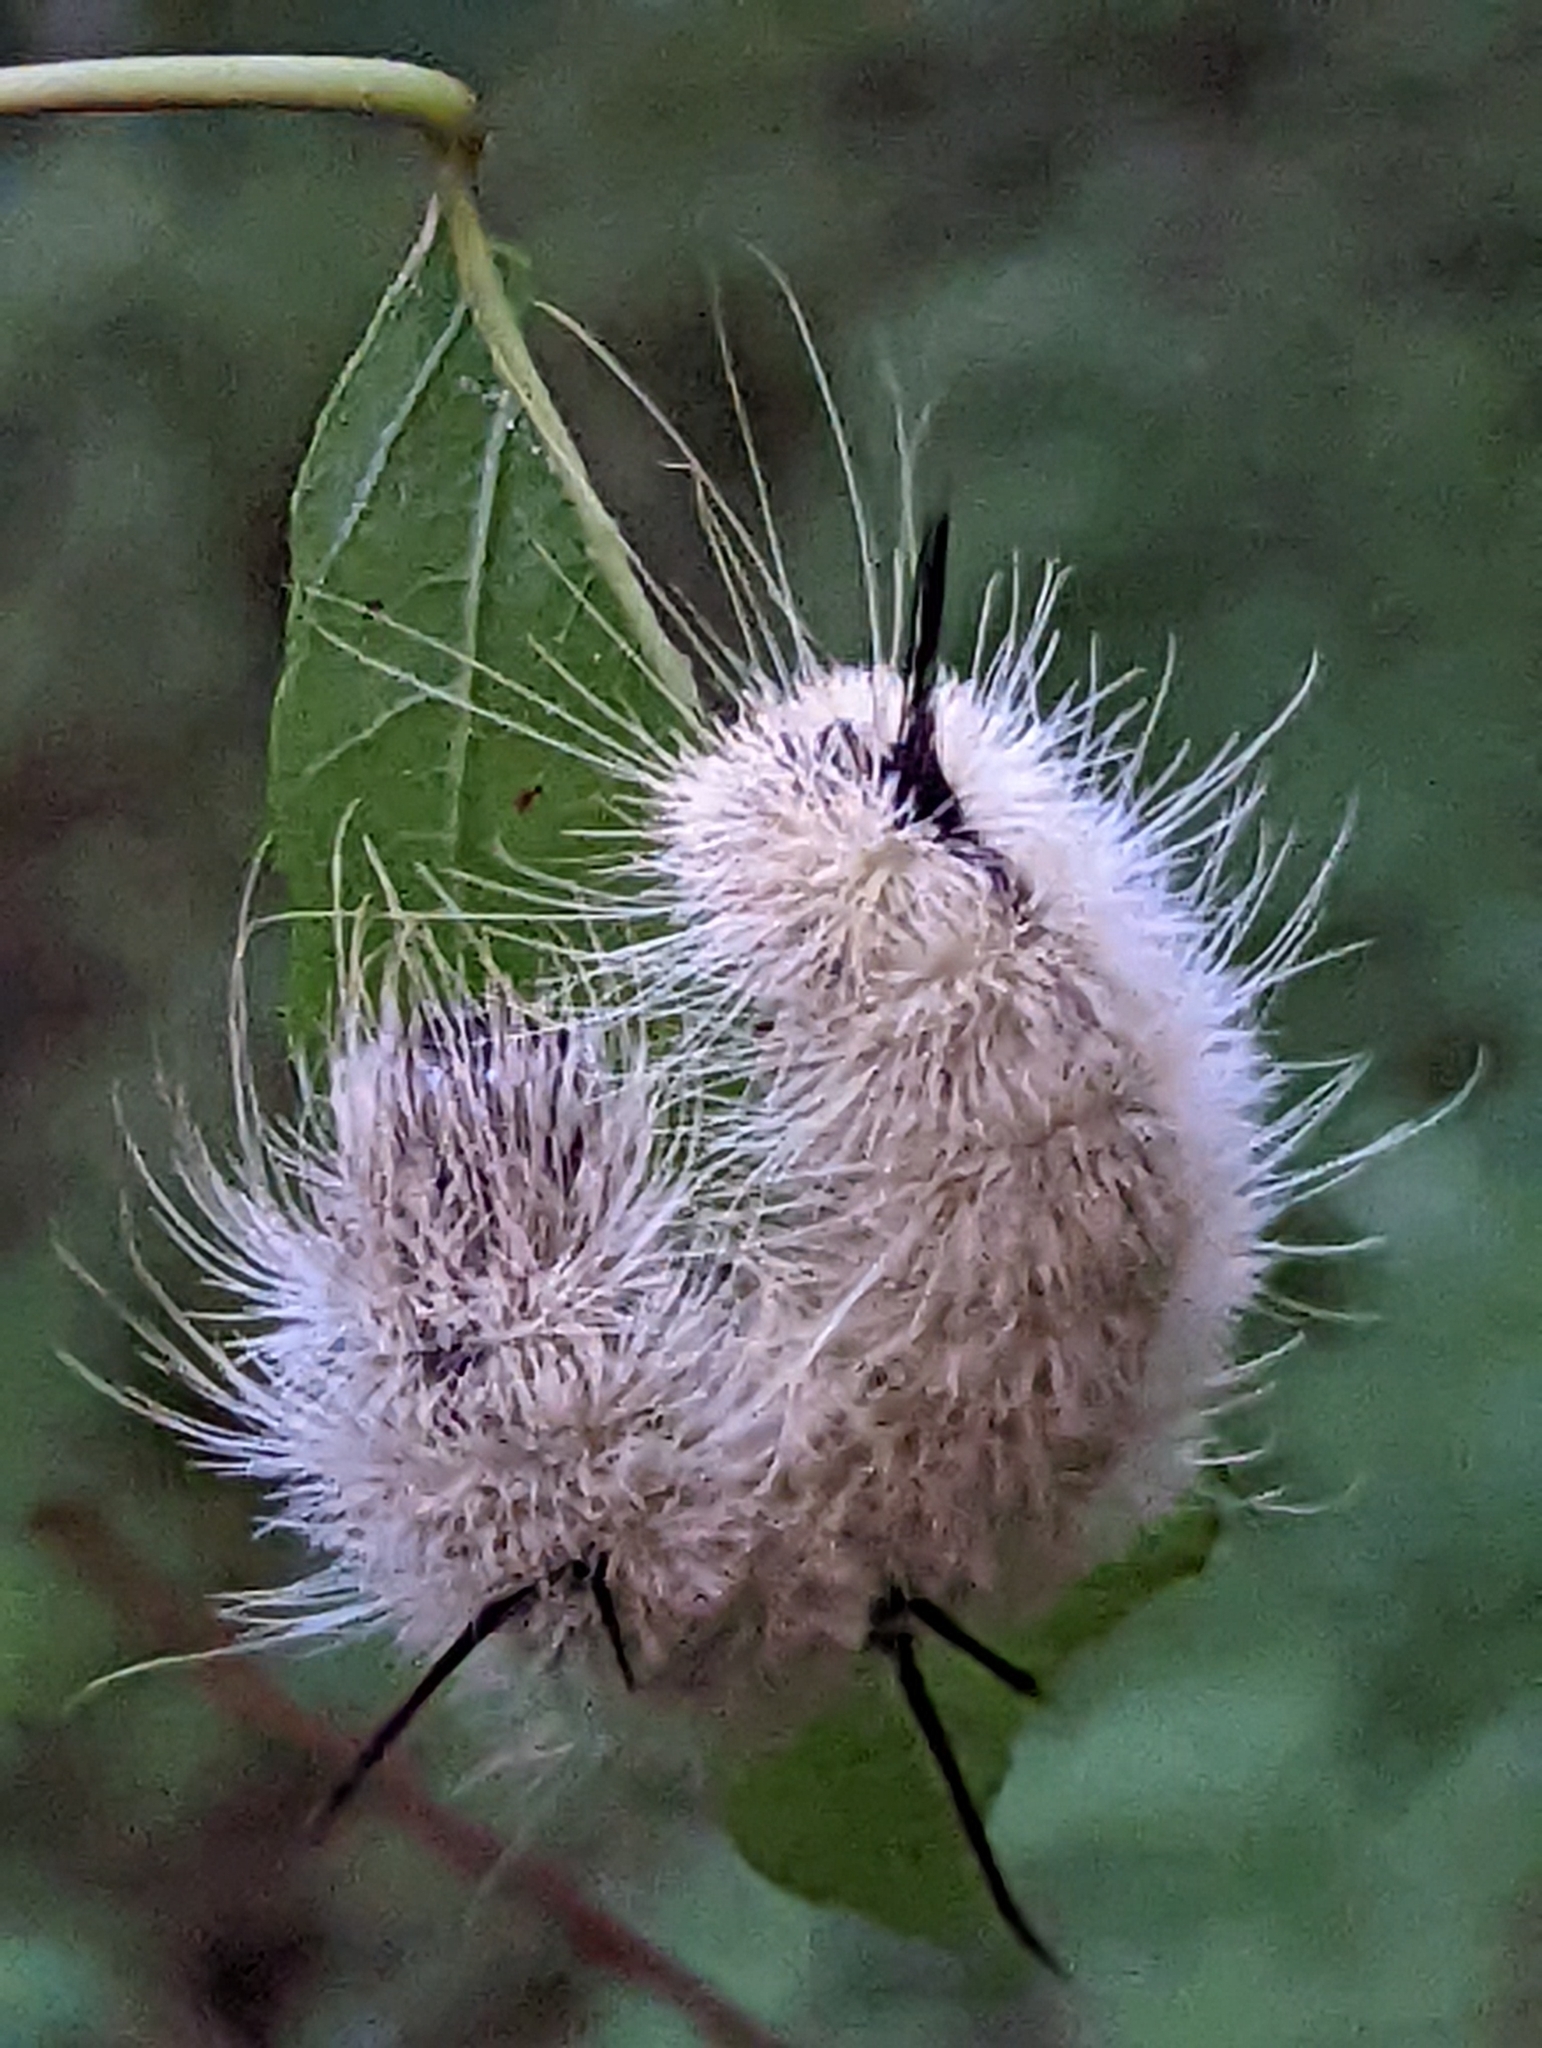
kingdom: Animalia
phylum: Arthropoda
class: Insecta
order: Lepidoptera
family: Noctuidae
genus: Acronicta
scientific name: Acronicta americana
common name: American dagger
